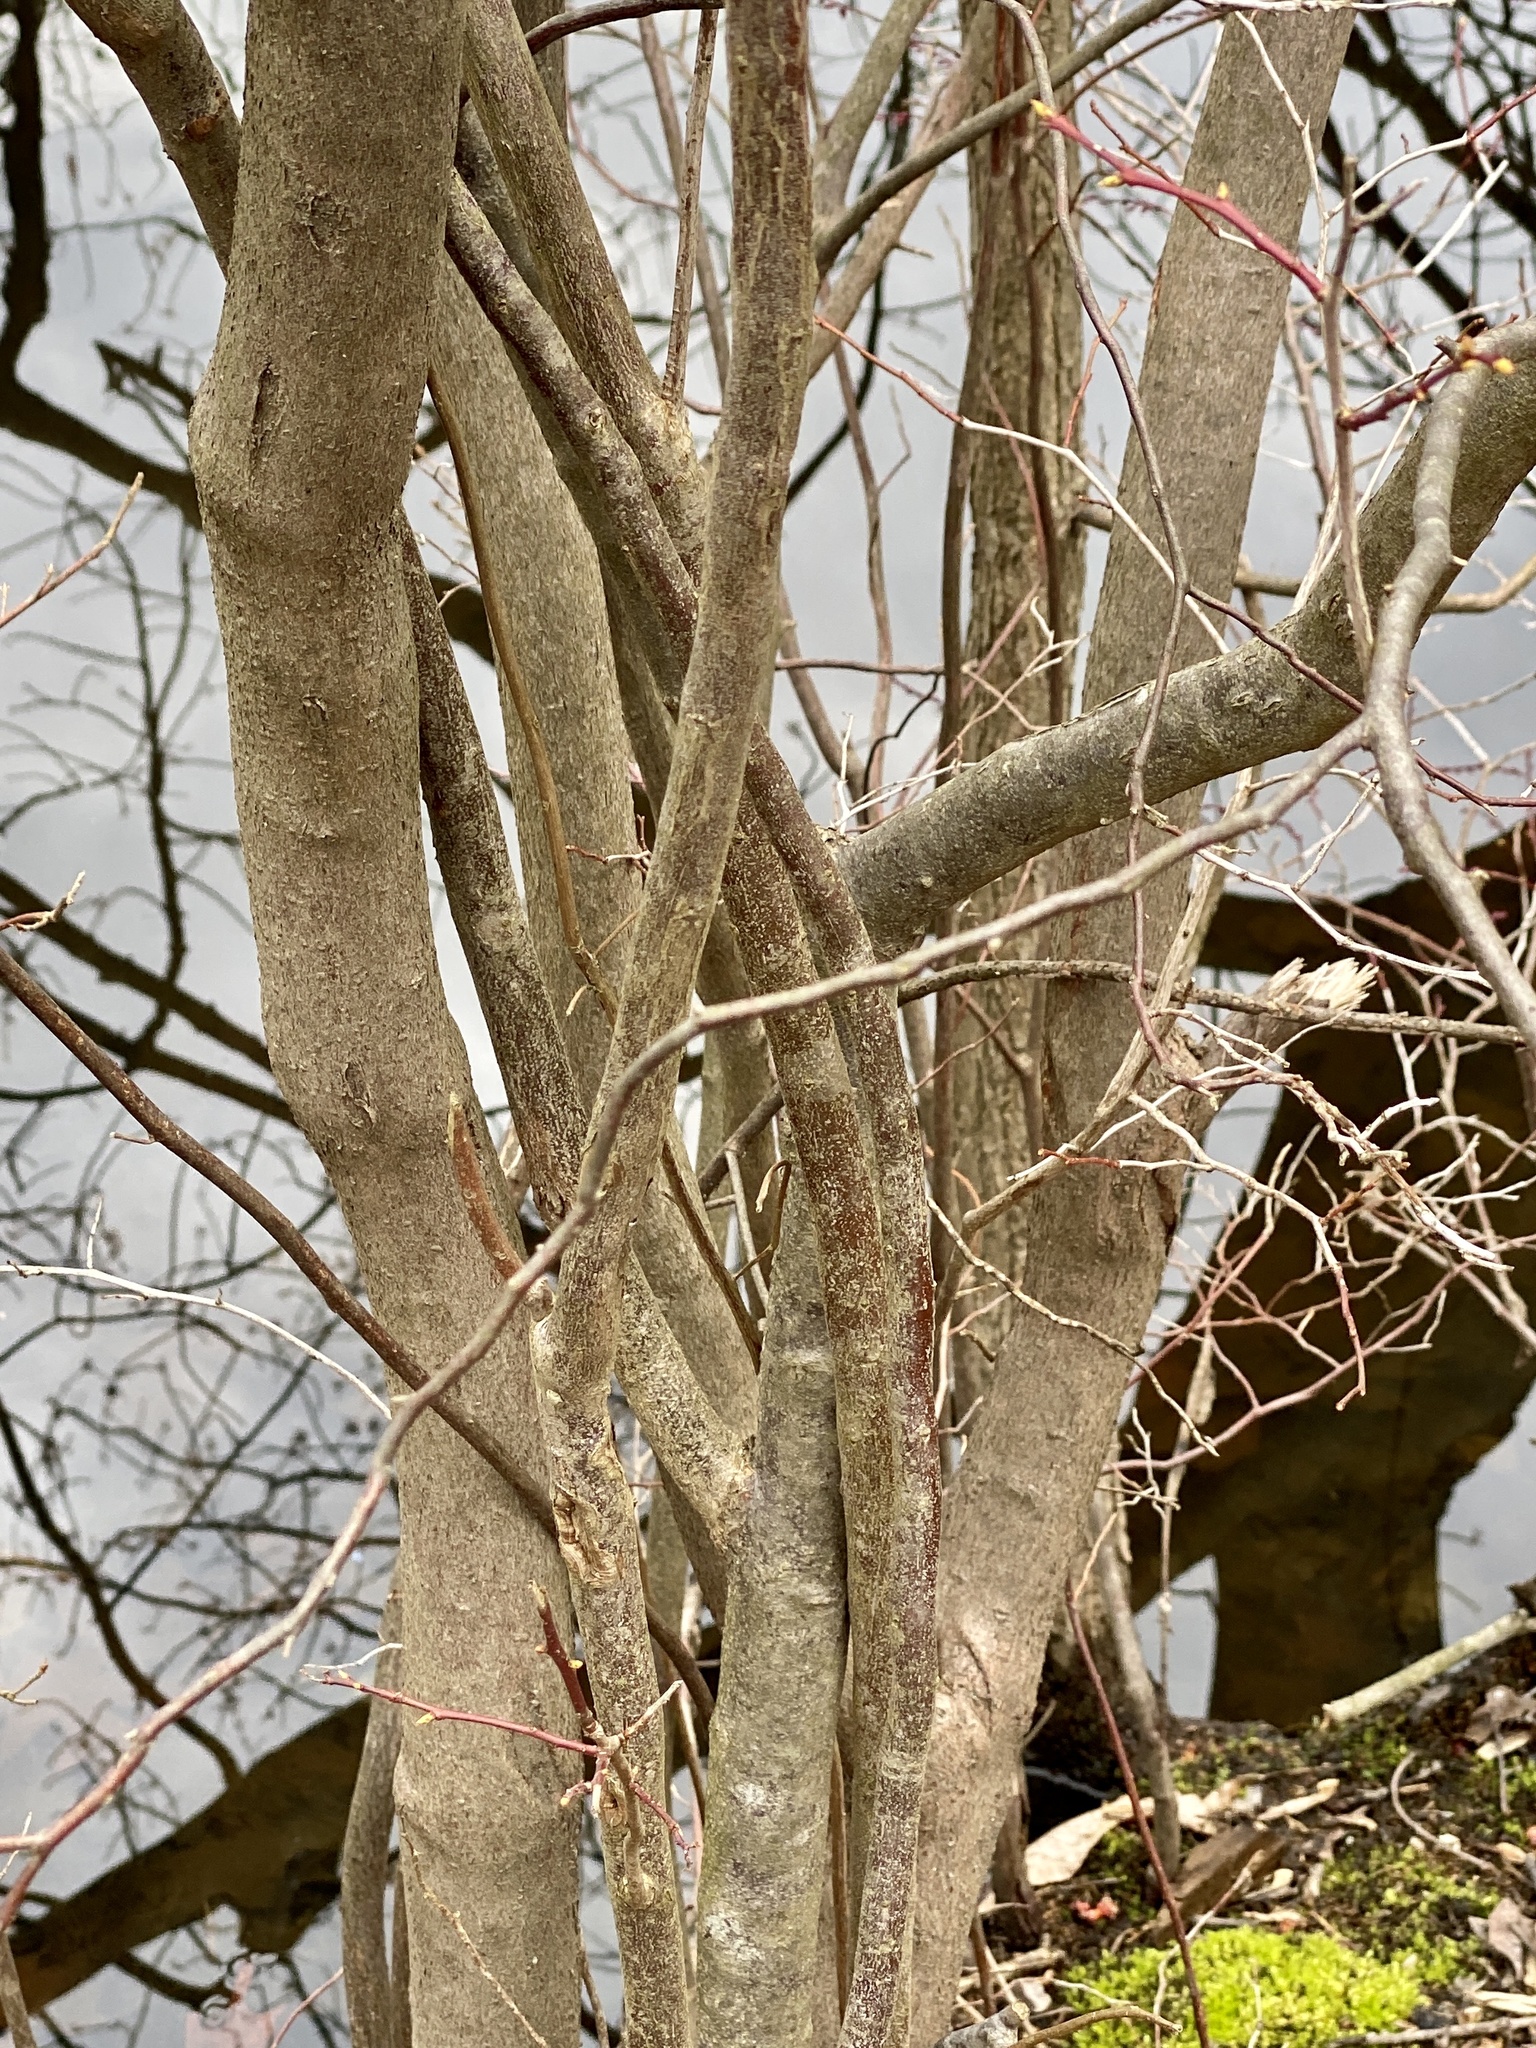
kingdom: Plantae
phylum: Tracheophyta
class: Magnoliopsida
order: Ericales
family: Ericaceae
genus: Eubotrys
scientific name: Eubotrys racemosa
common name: Fetterbush
